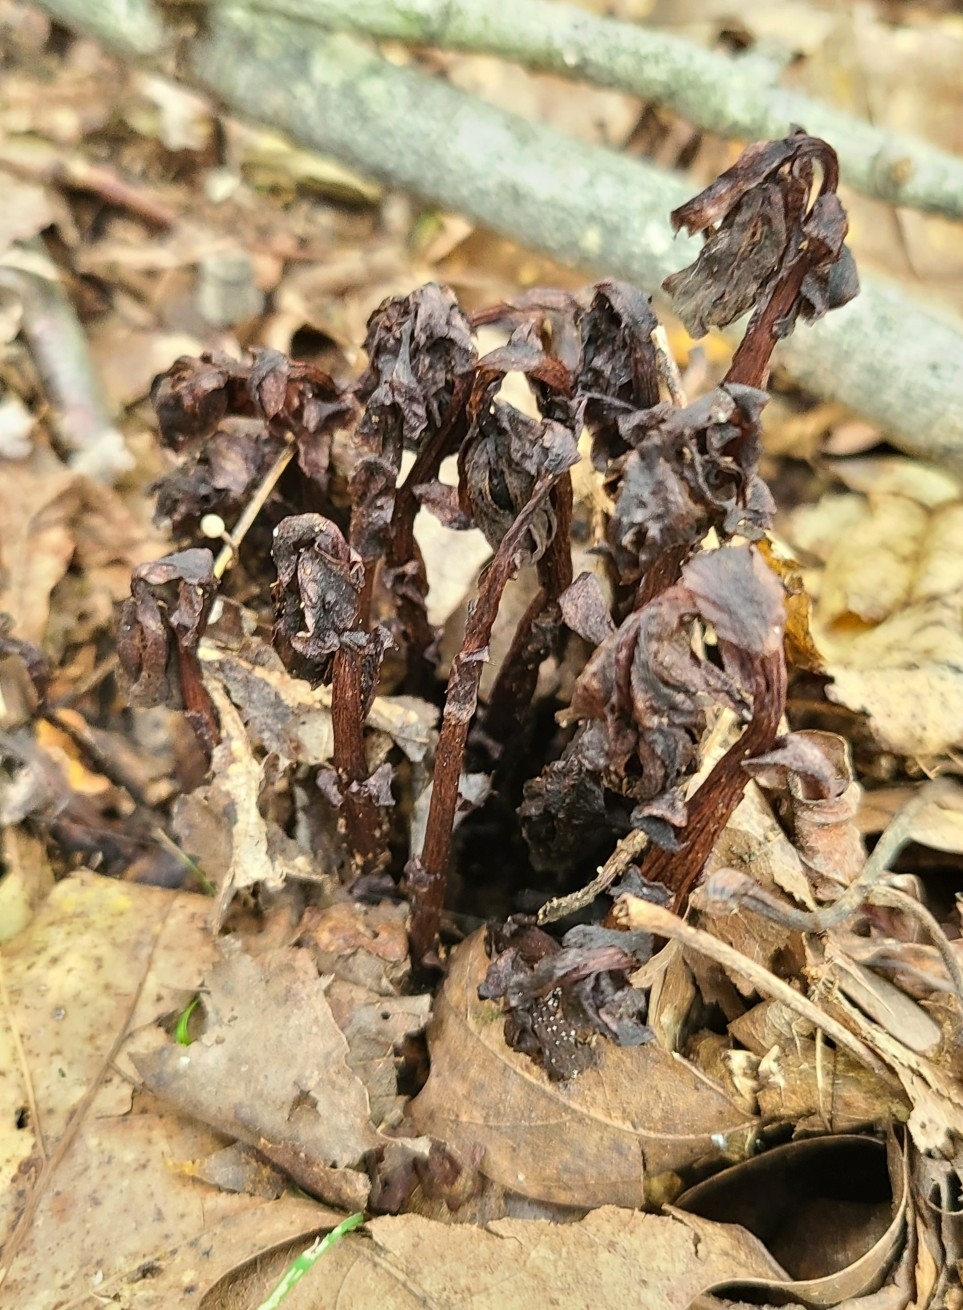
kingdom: Plantae
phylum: Tracheophyta
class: Magnoliopsida
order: Ericales
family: Ericaceae
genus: Monotropa
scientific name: Monotropa uniflora
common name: Convulsion root
